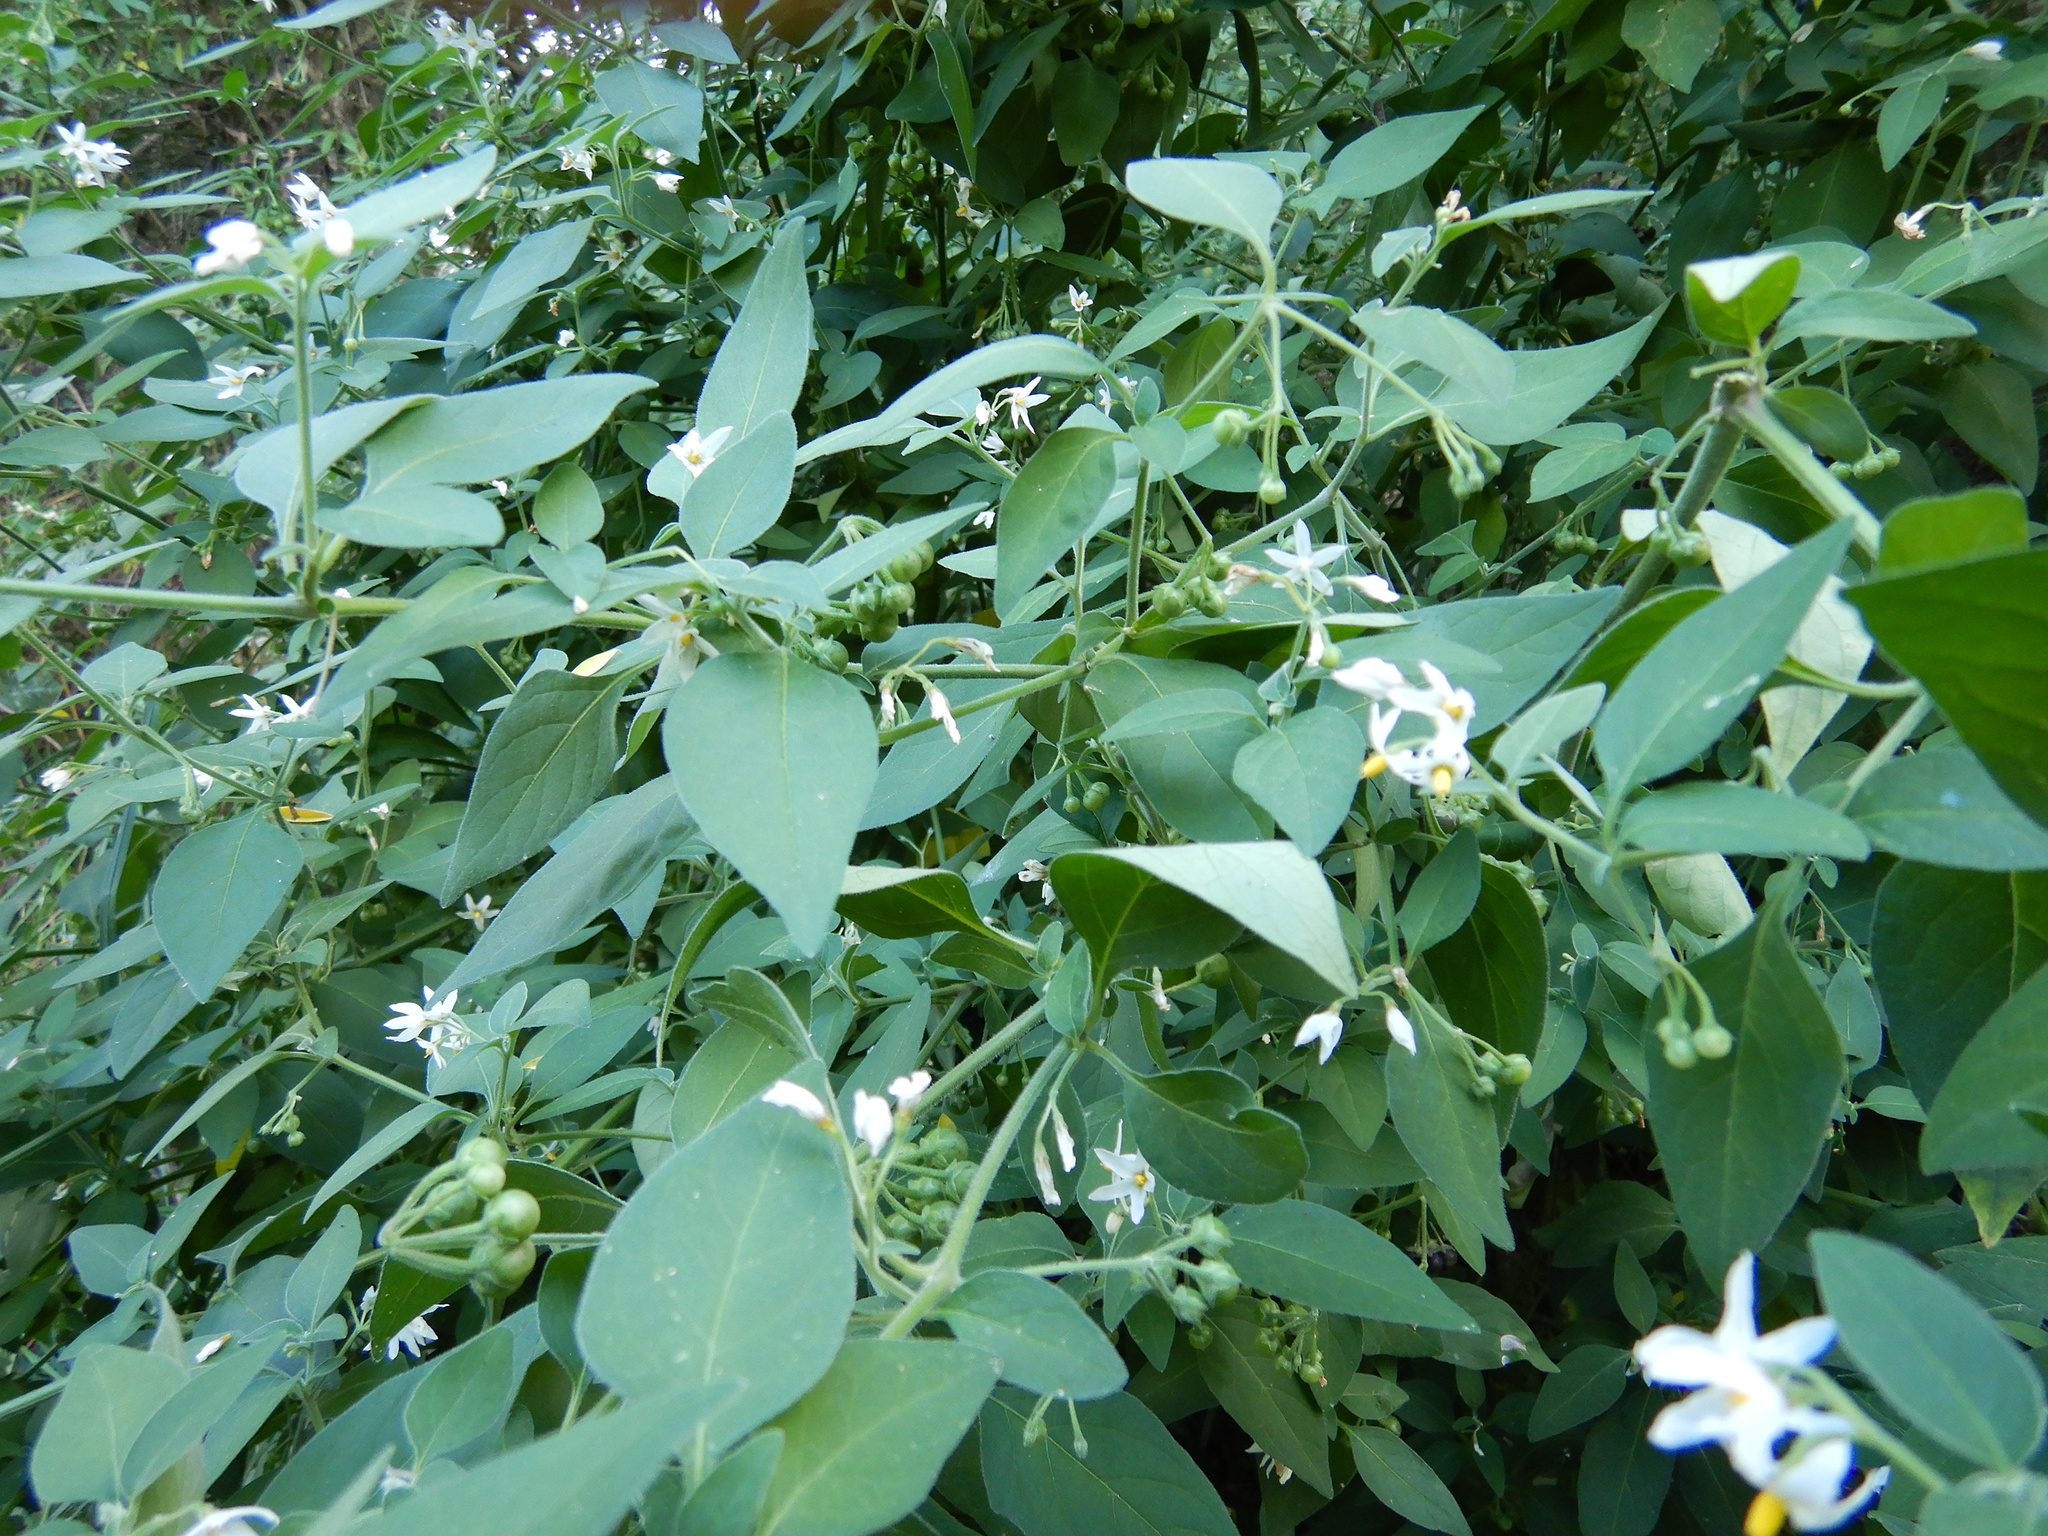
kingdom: Plantae
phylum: Tracheophyta
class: Magnoliopsida
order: Solanales
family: Solanaceae
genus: Solanum
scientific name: Solanum chenopodioides
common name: Tall nightshade
